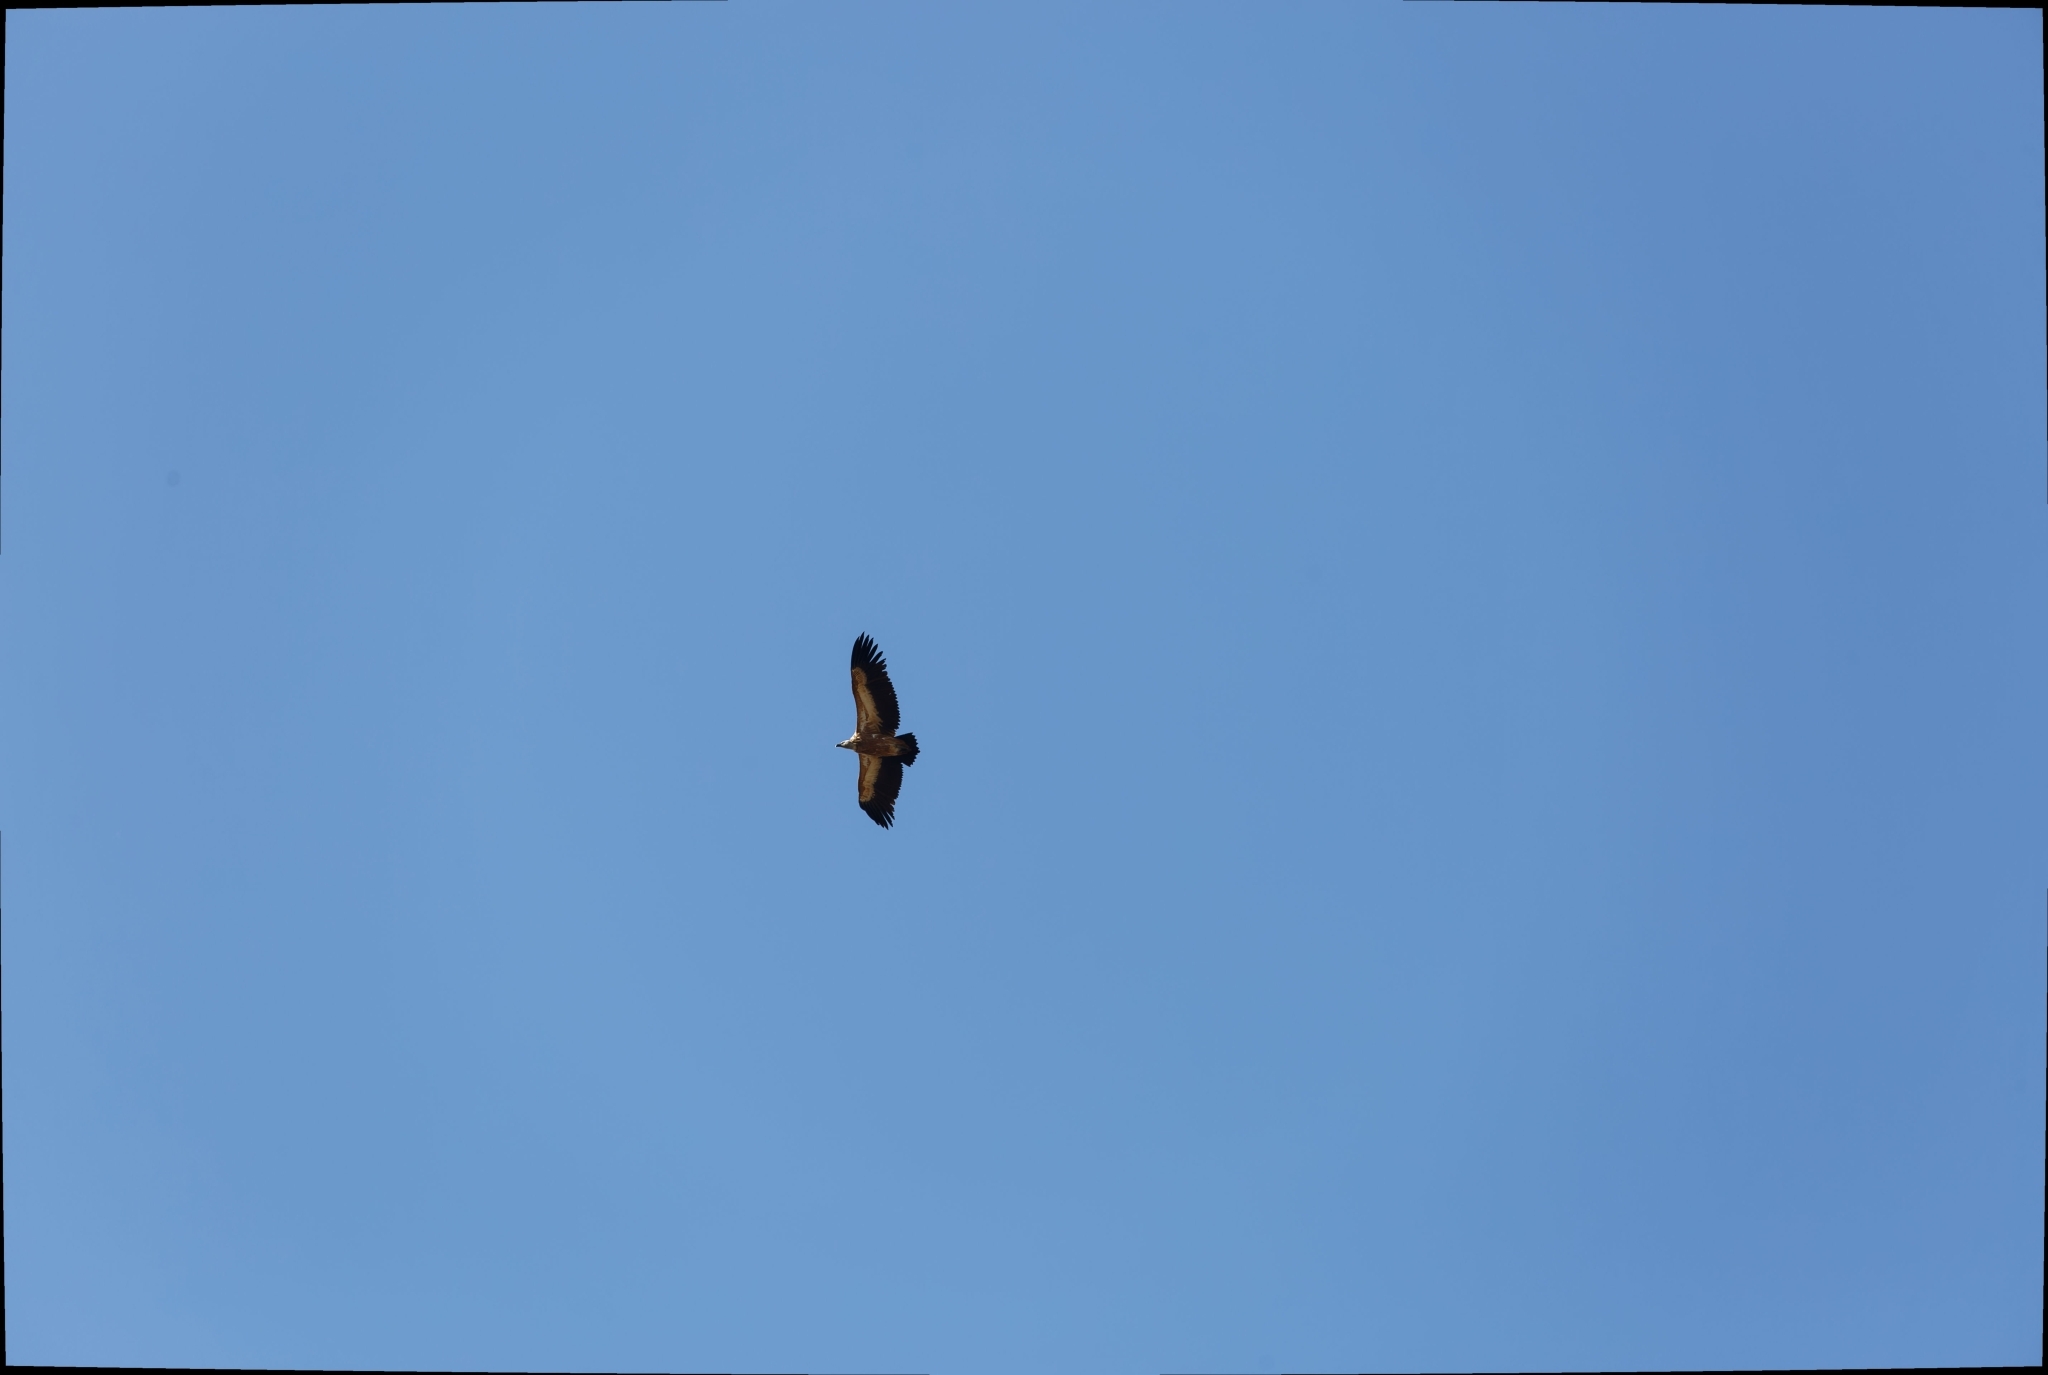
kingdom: Animalia
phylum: Chordata
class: Aves
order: Accipitriformes
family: Accipitridae
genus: Gyps
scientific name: Gyps fulvus
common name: Griffon vulture
